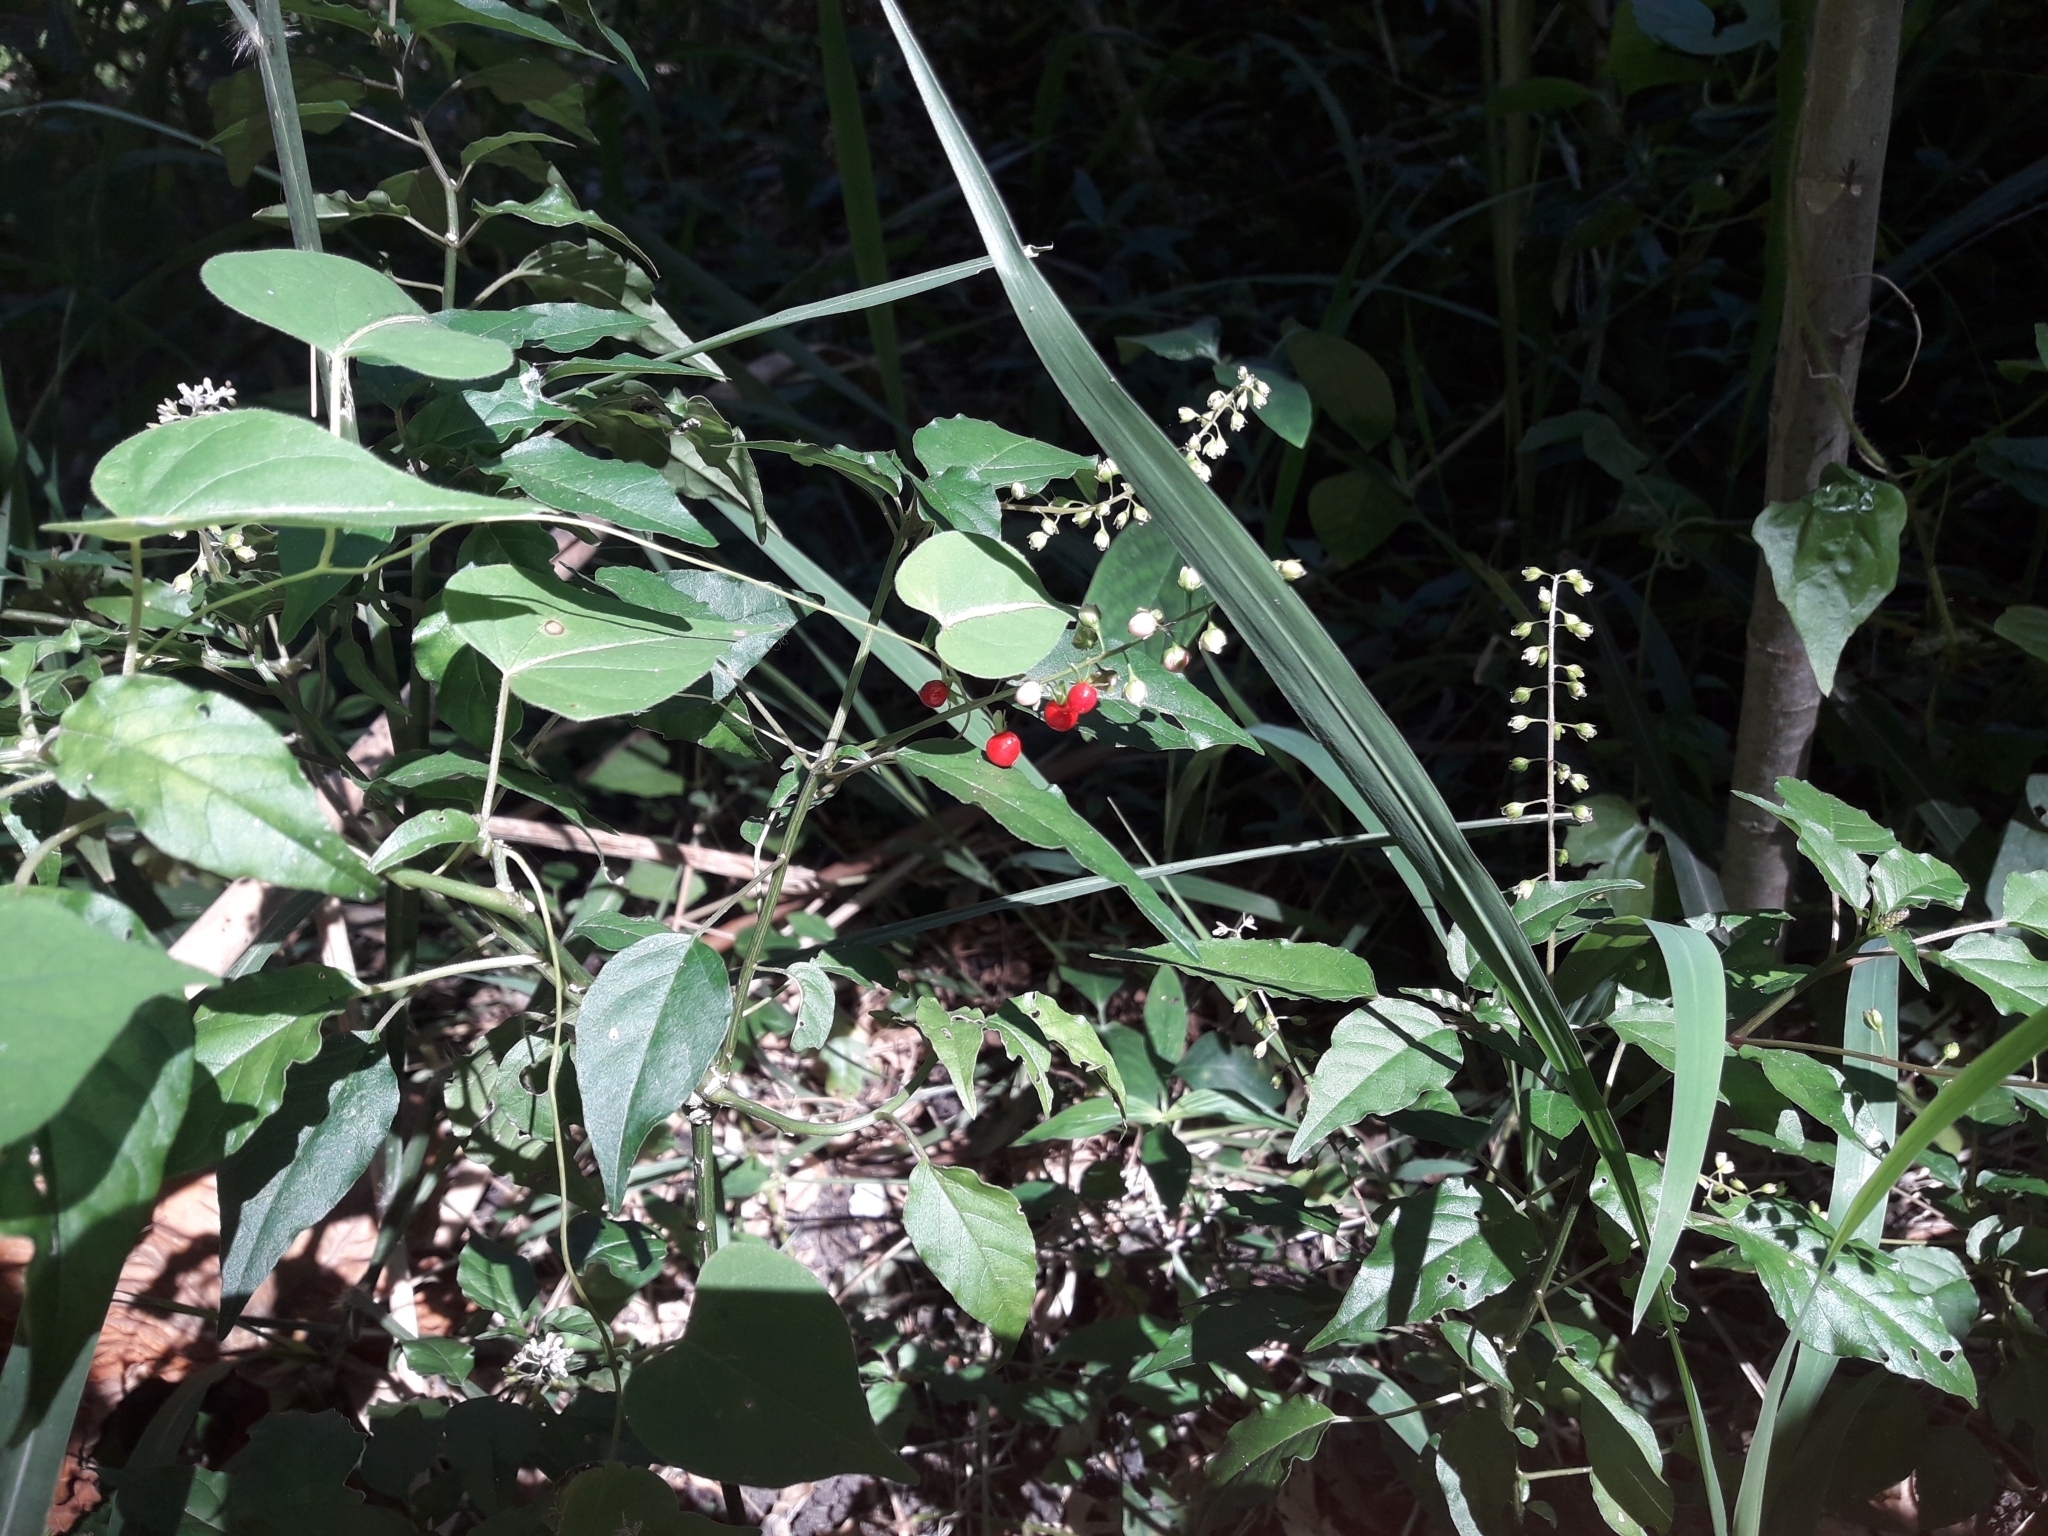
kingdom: Plantae
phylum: Tracheophyta
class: Magnoliopsida
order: Caryophyllales
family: Phytolaccaceae
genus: Rivina
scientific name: Rivina humilis
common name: Rougeplant
